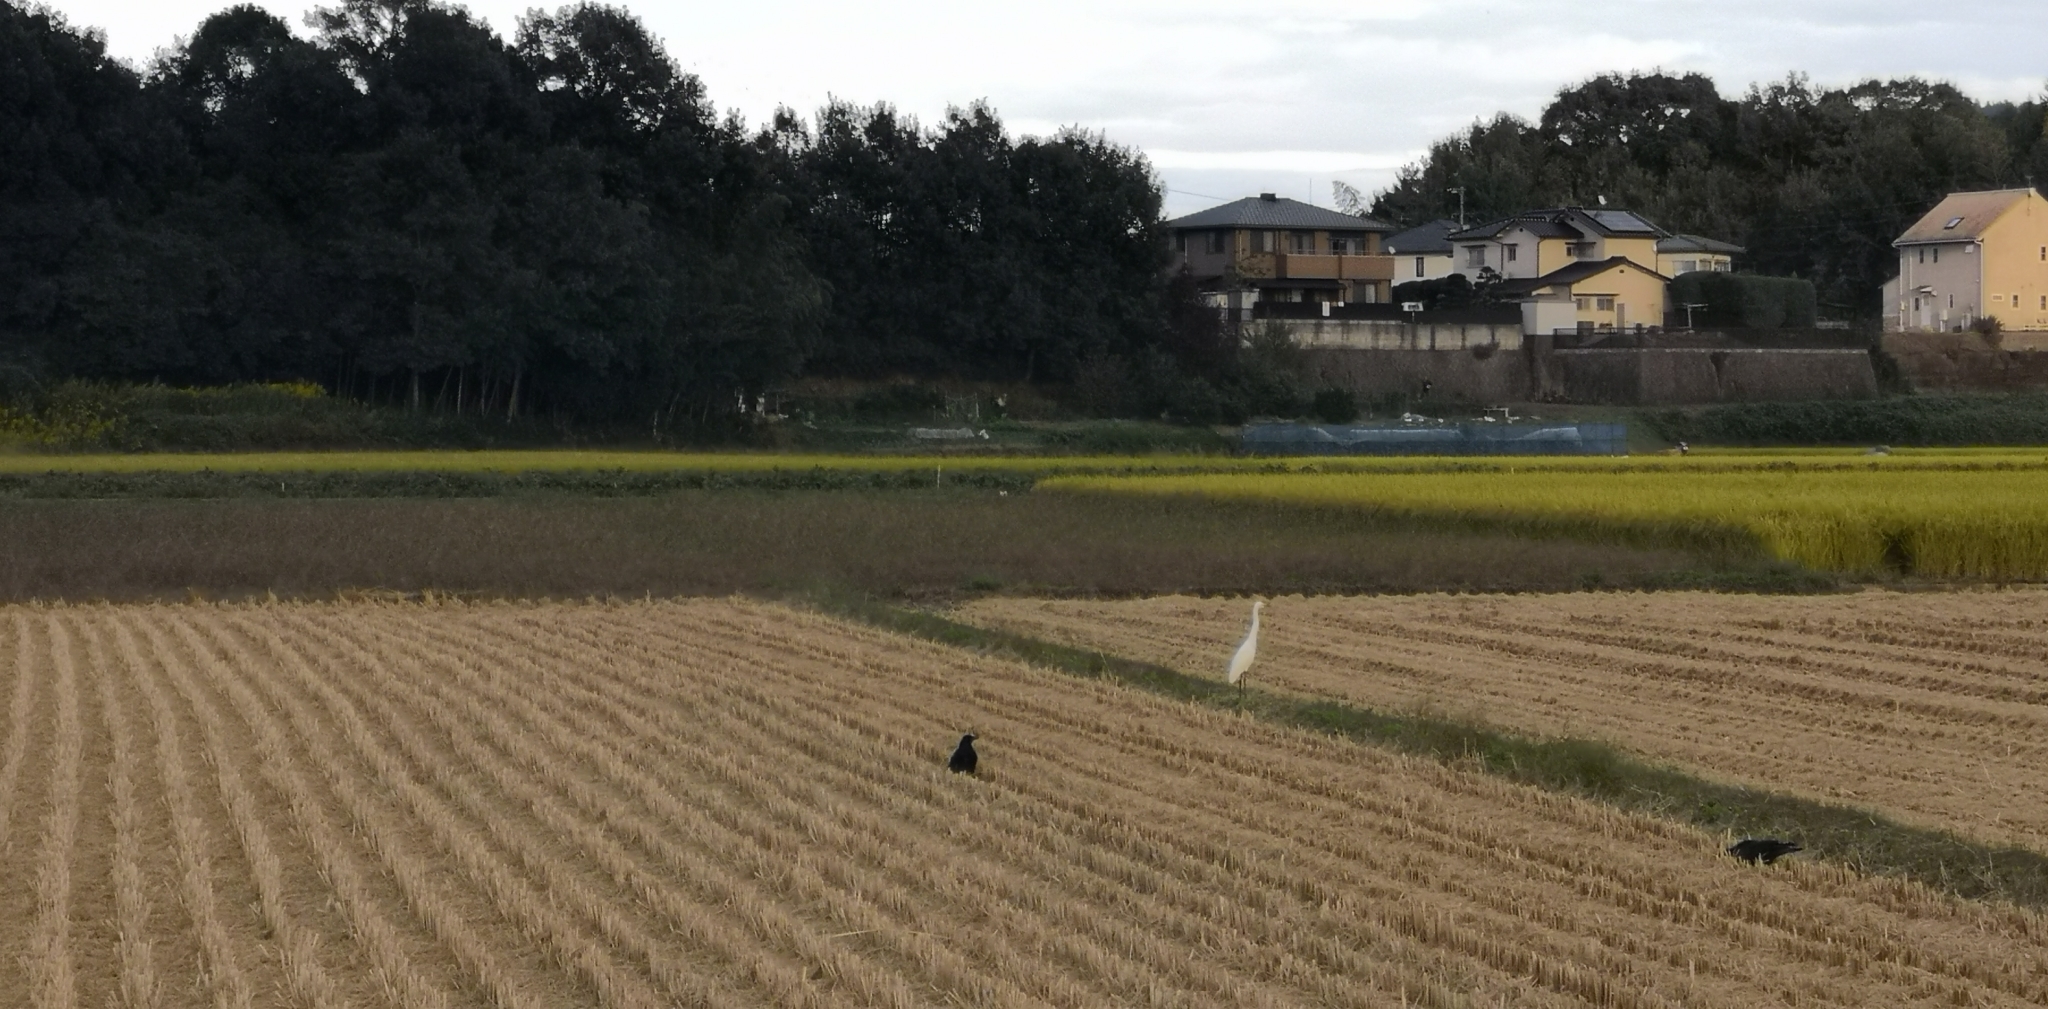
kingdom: Animalia
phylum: Chordata
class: Aves
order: Pelecaniformes
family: Ardeidae
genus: Egretta
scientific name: Egretta intermedia
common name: Intermediate egret
